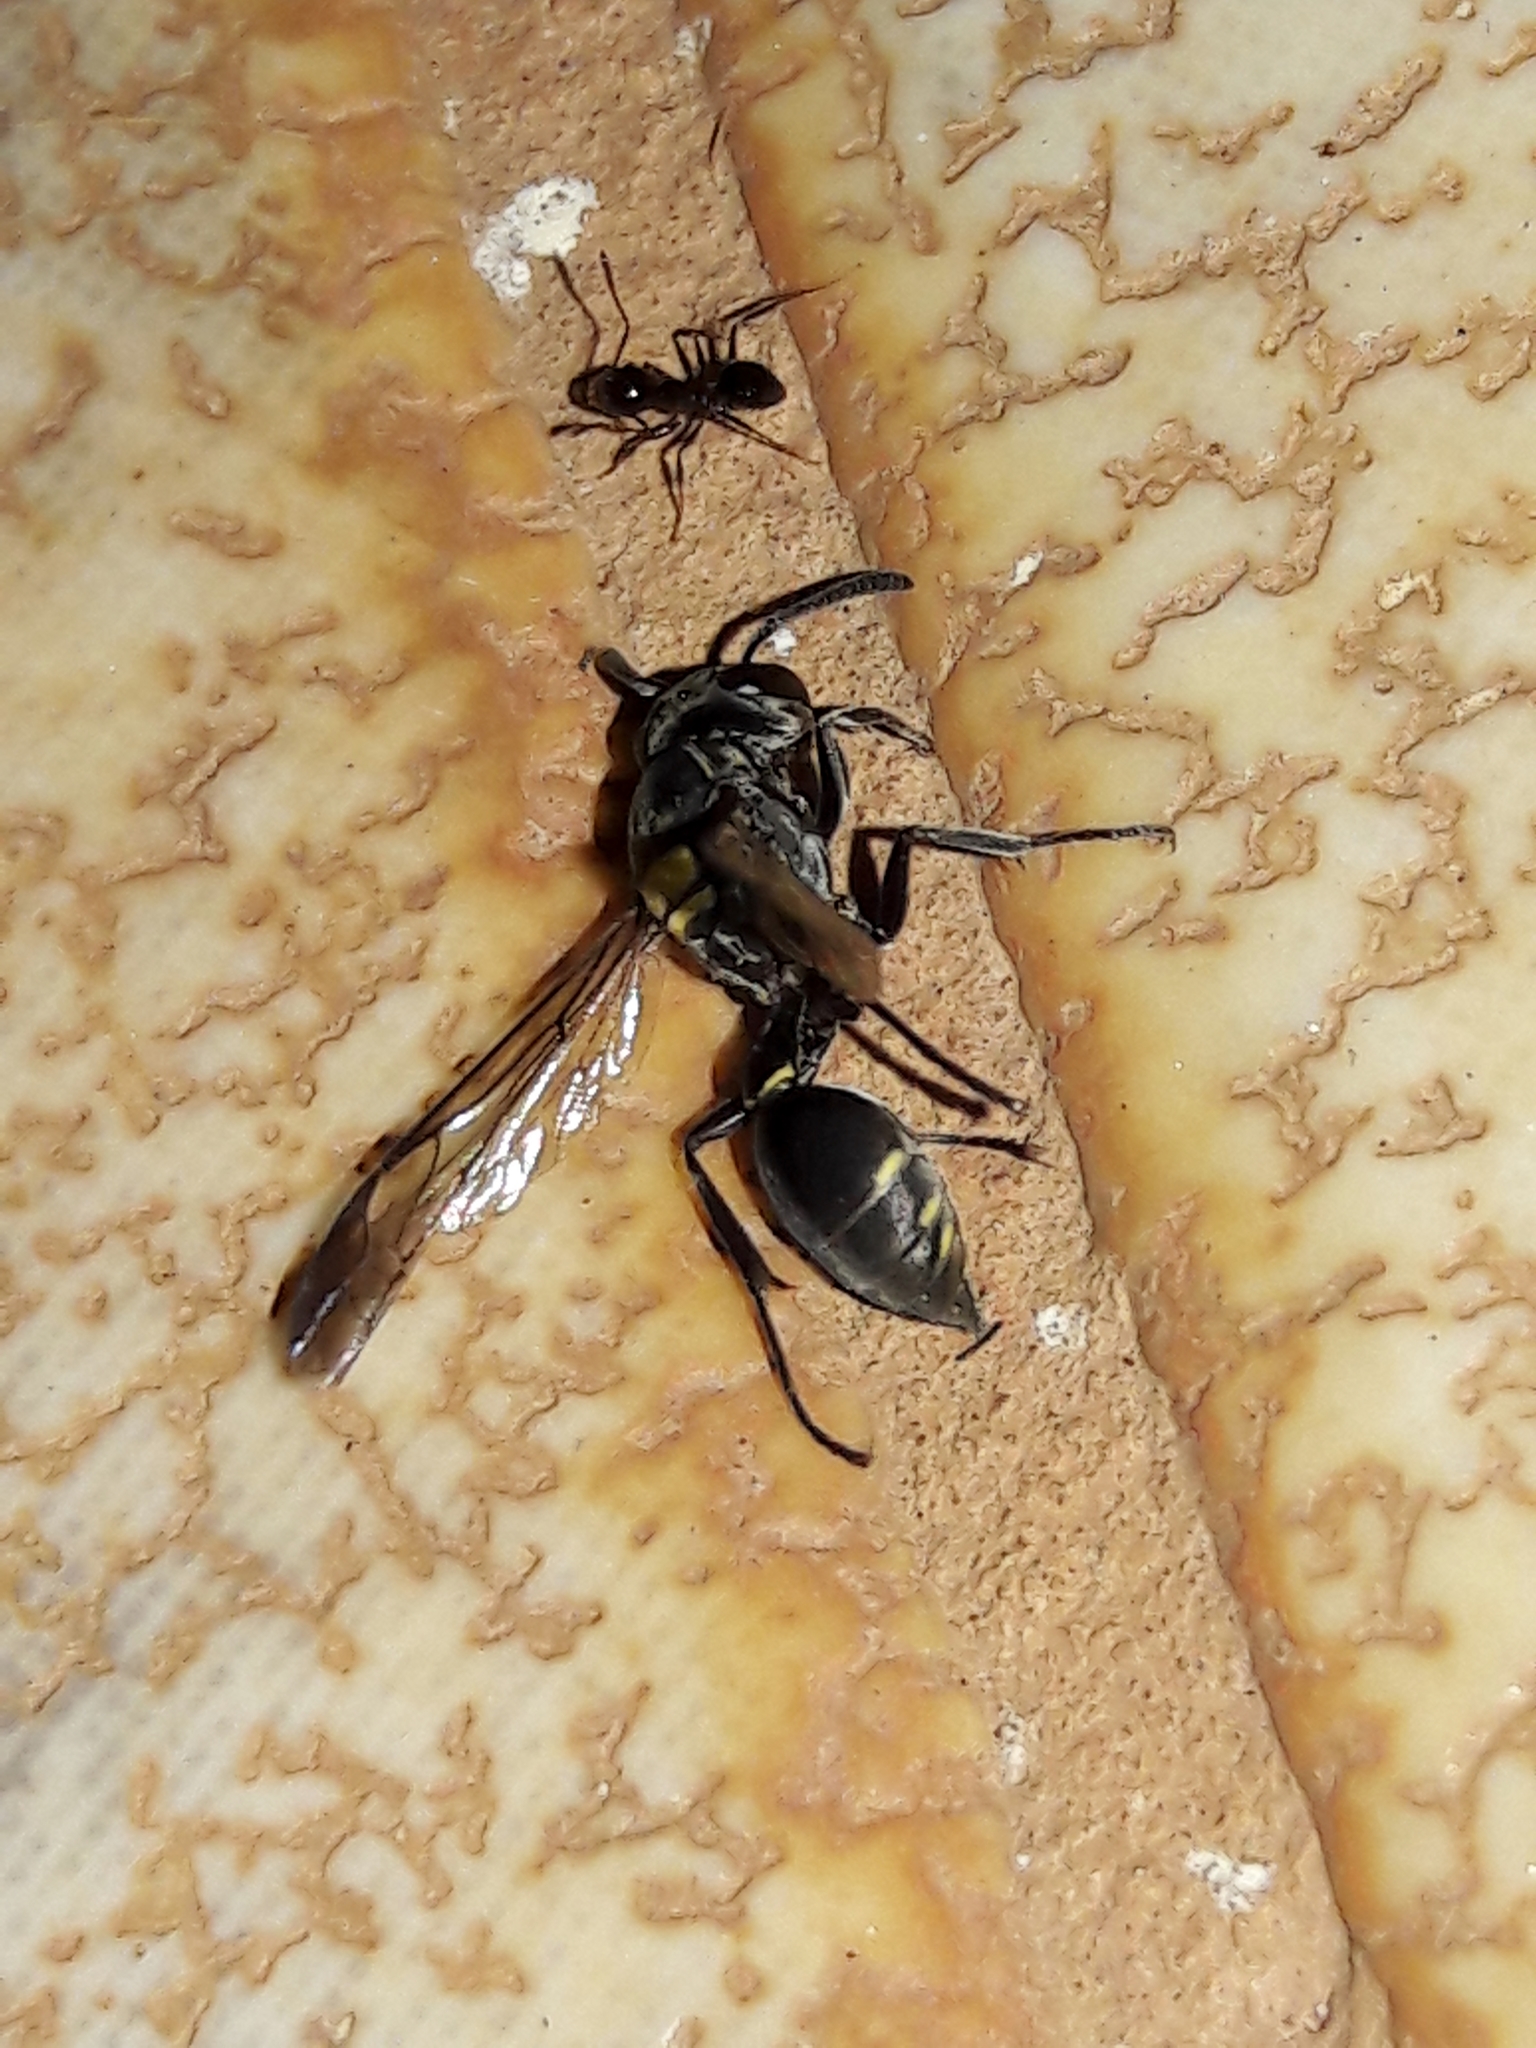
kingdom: Animalia
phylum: Arthropoda
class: Insecta
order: Hymenoptera
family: Eumenidae
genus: Polybia
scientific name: Polybia paulista
